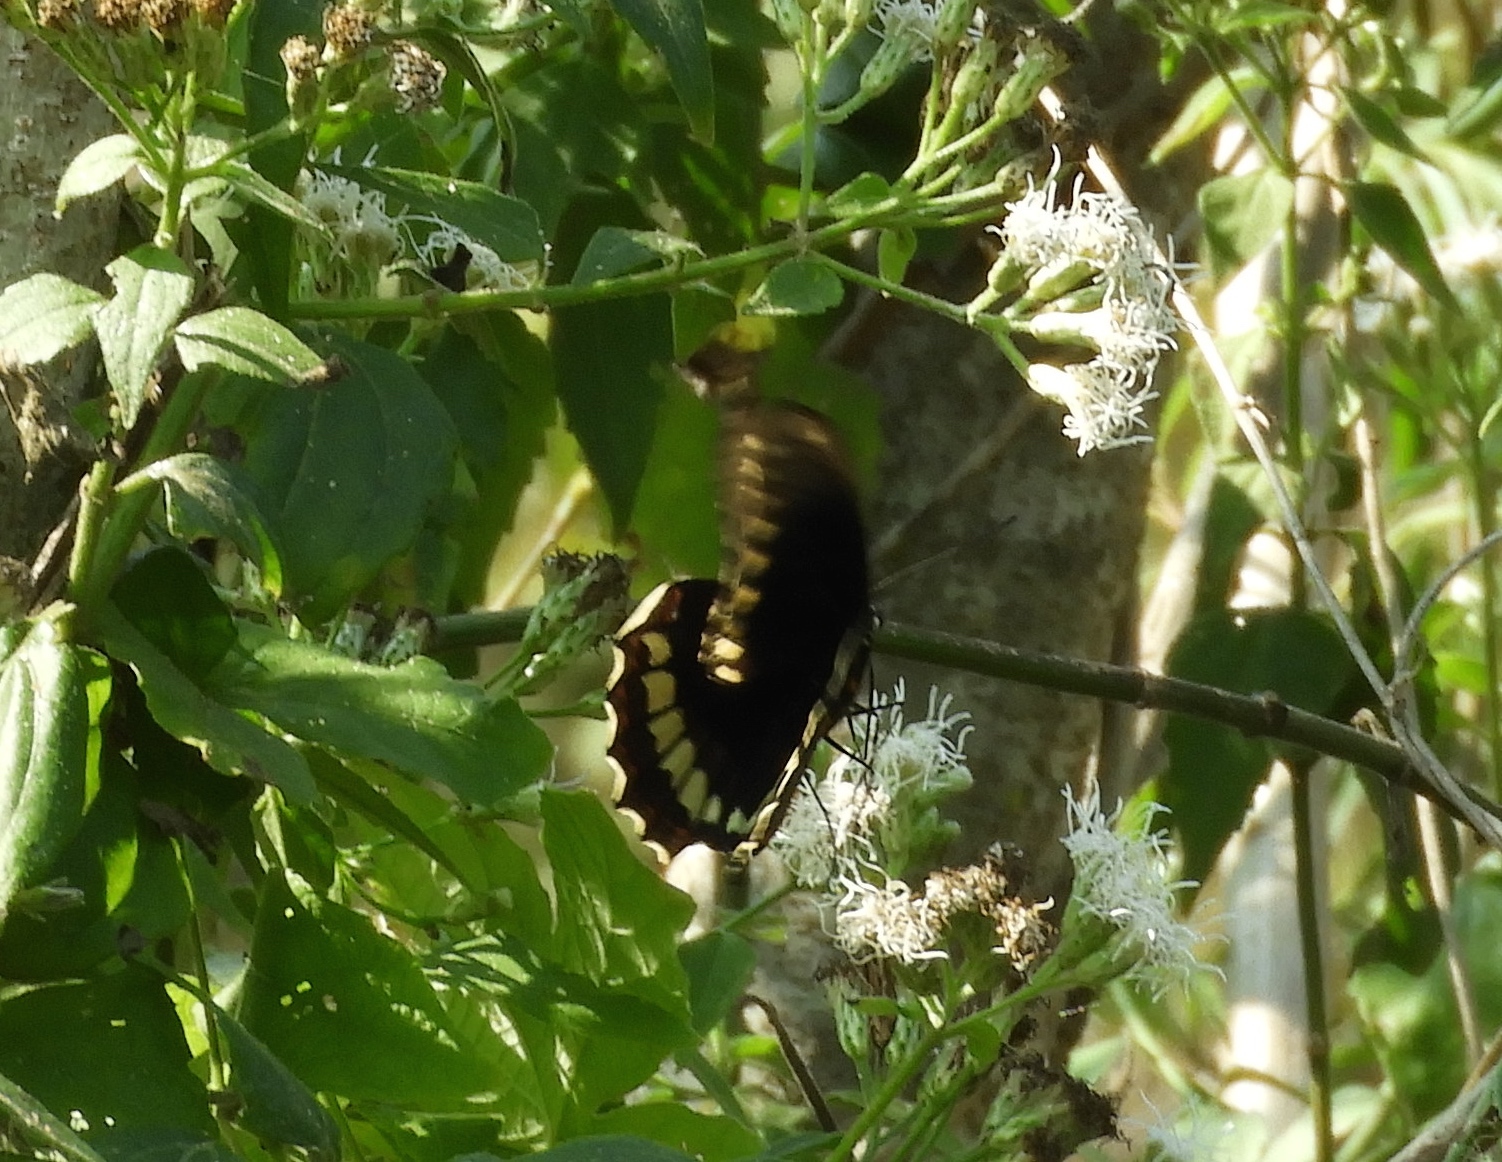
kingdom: Animalia
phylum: Arthropoda
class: Insecta
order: Lepidoptera
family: Papilionidae
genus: Battus
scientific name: Battus polydamas
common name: Polydamas swallowtail
